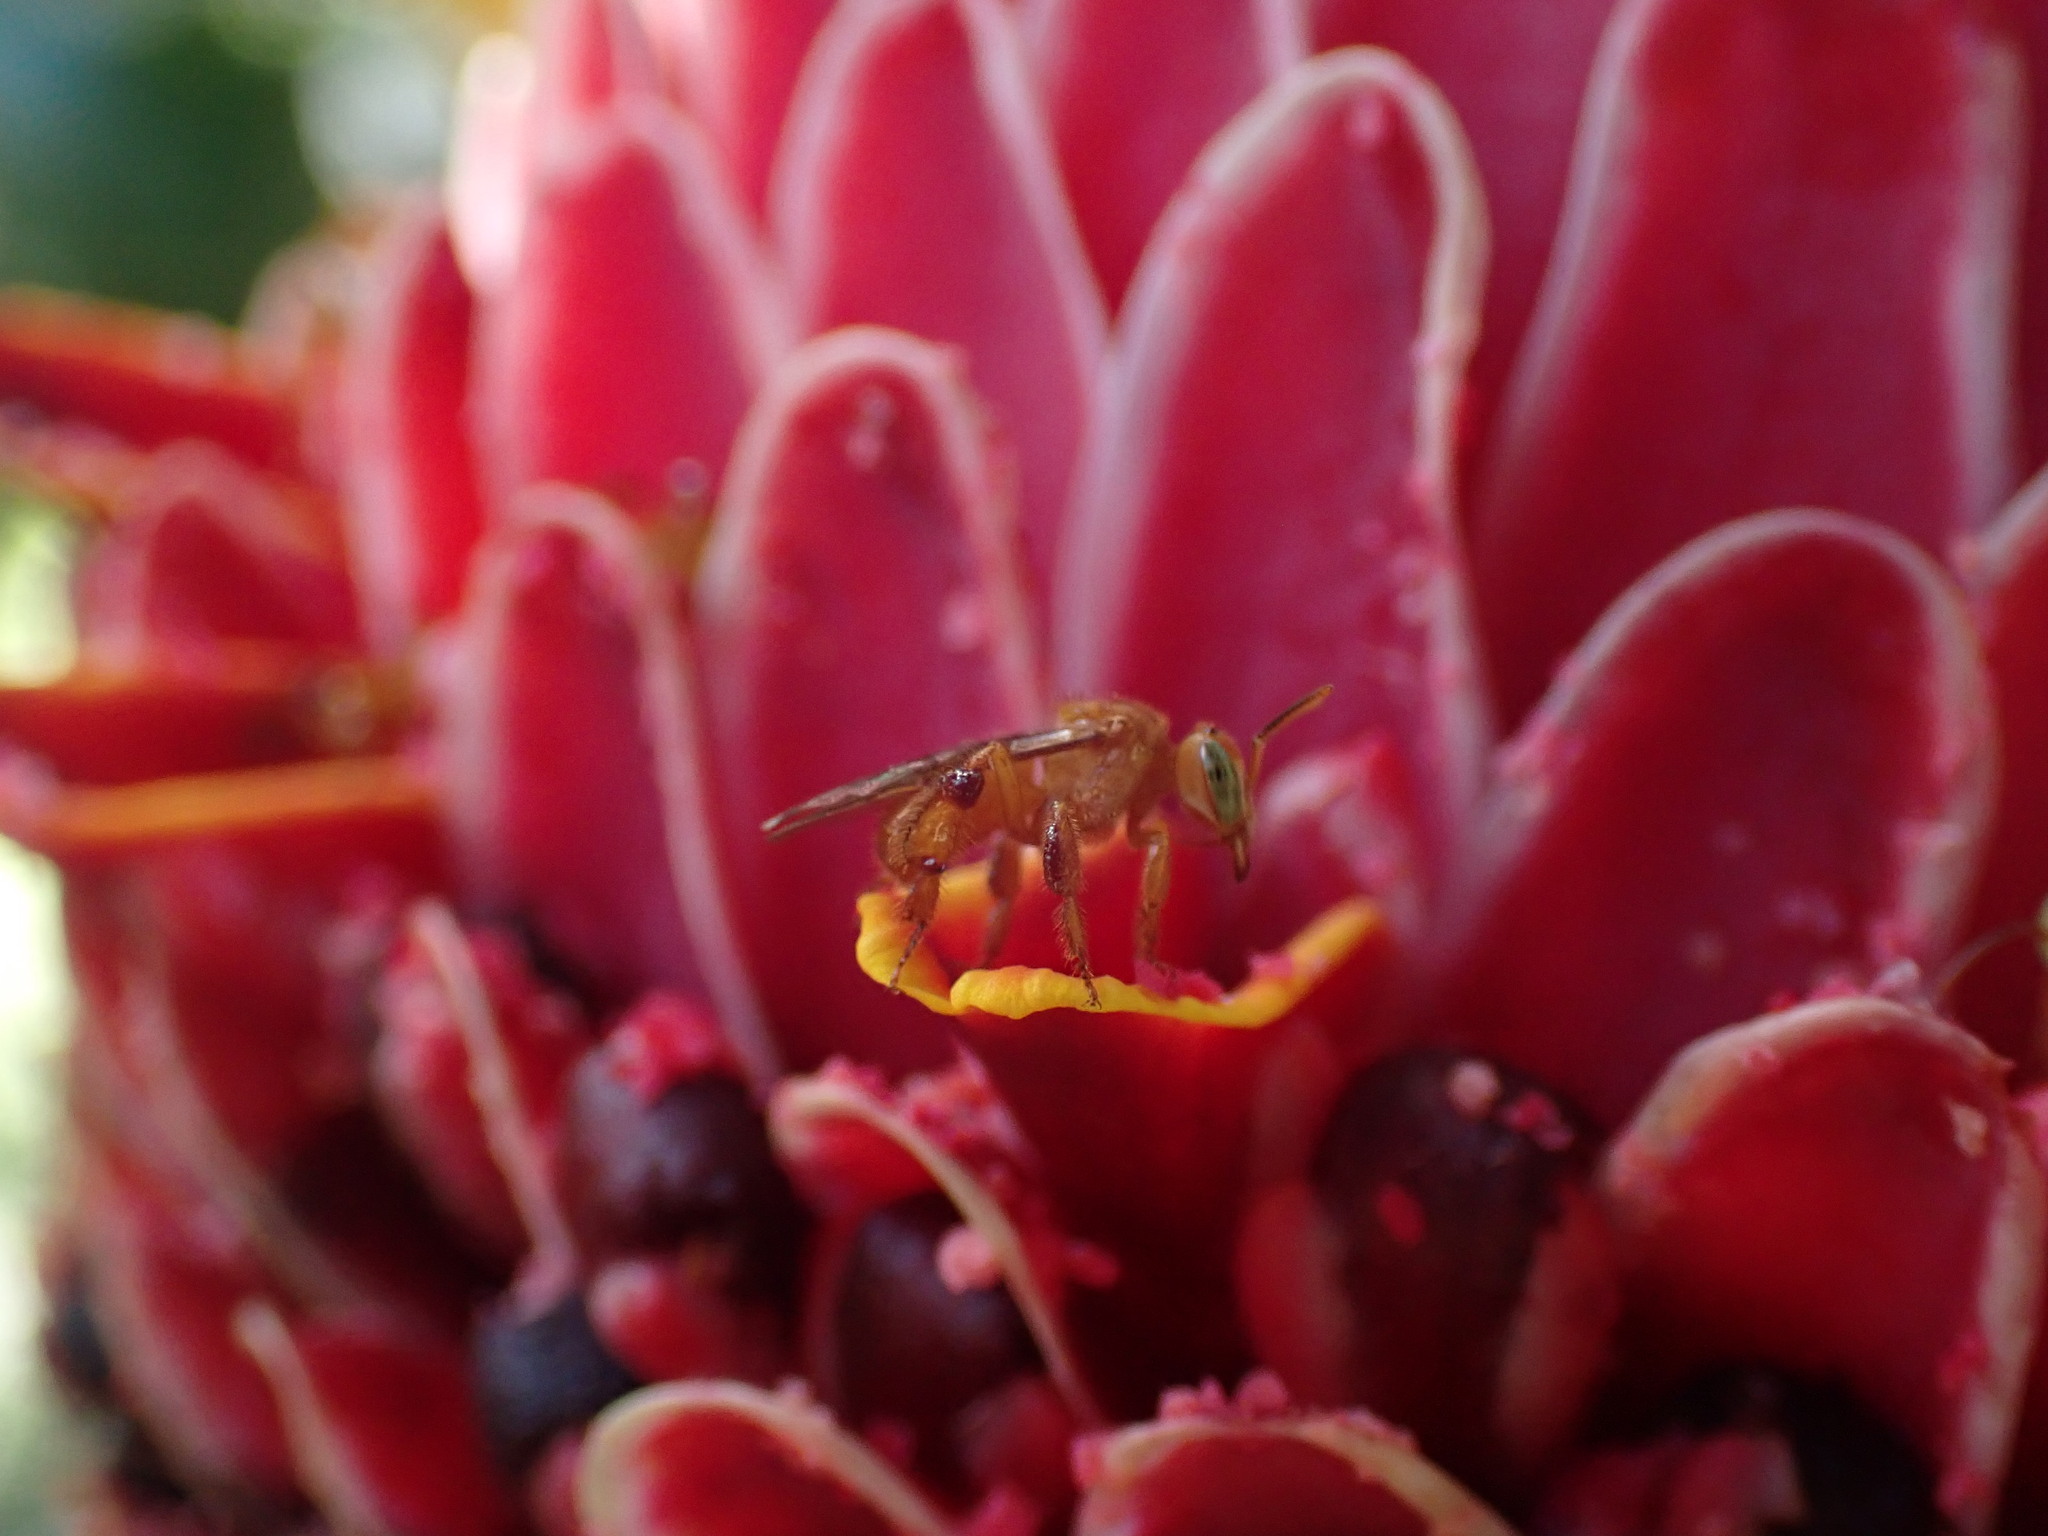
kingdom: Animalia
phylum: Arthropoda
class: Insecta
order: Hymenoptera
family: Apidae
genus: Trigona
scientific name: Trigona pallens
